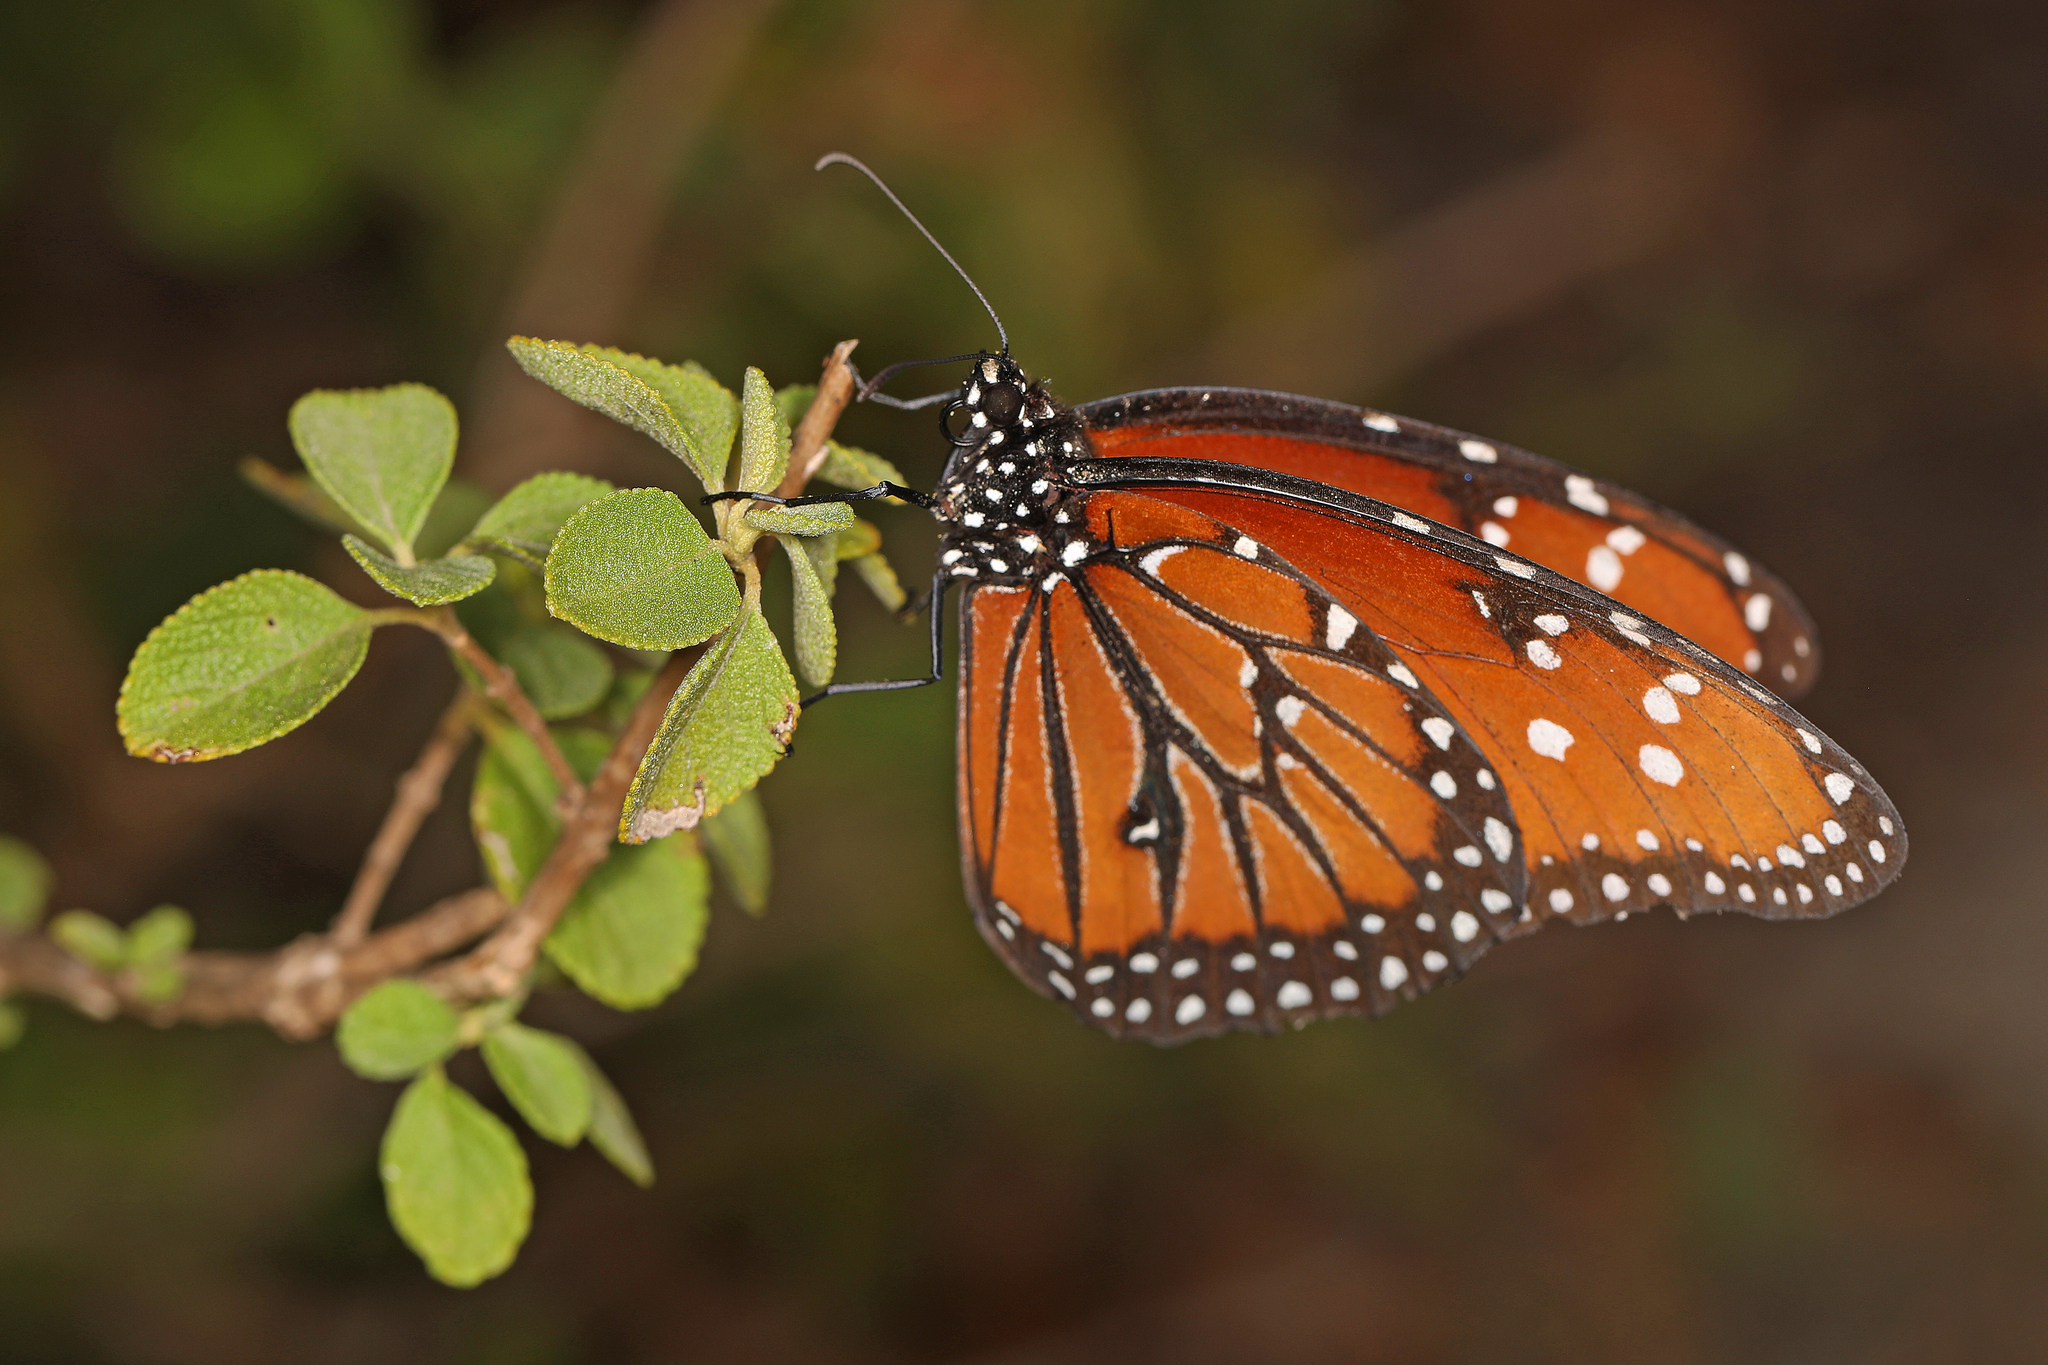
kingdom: Animalia
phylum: Arthropoda
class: Insecta
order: Lepidoptera
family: Nymphalidae
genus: Danaus
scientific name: Danaus gilippus
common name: Queen
